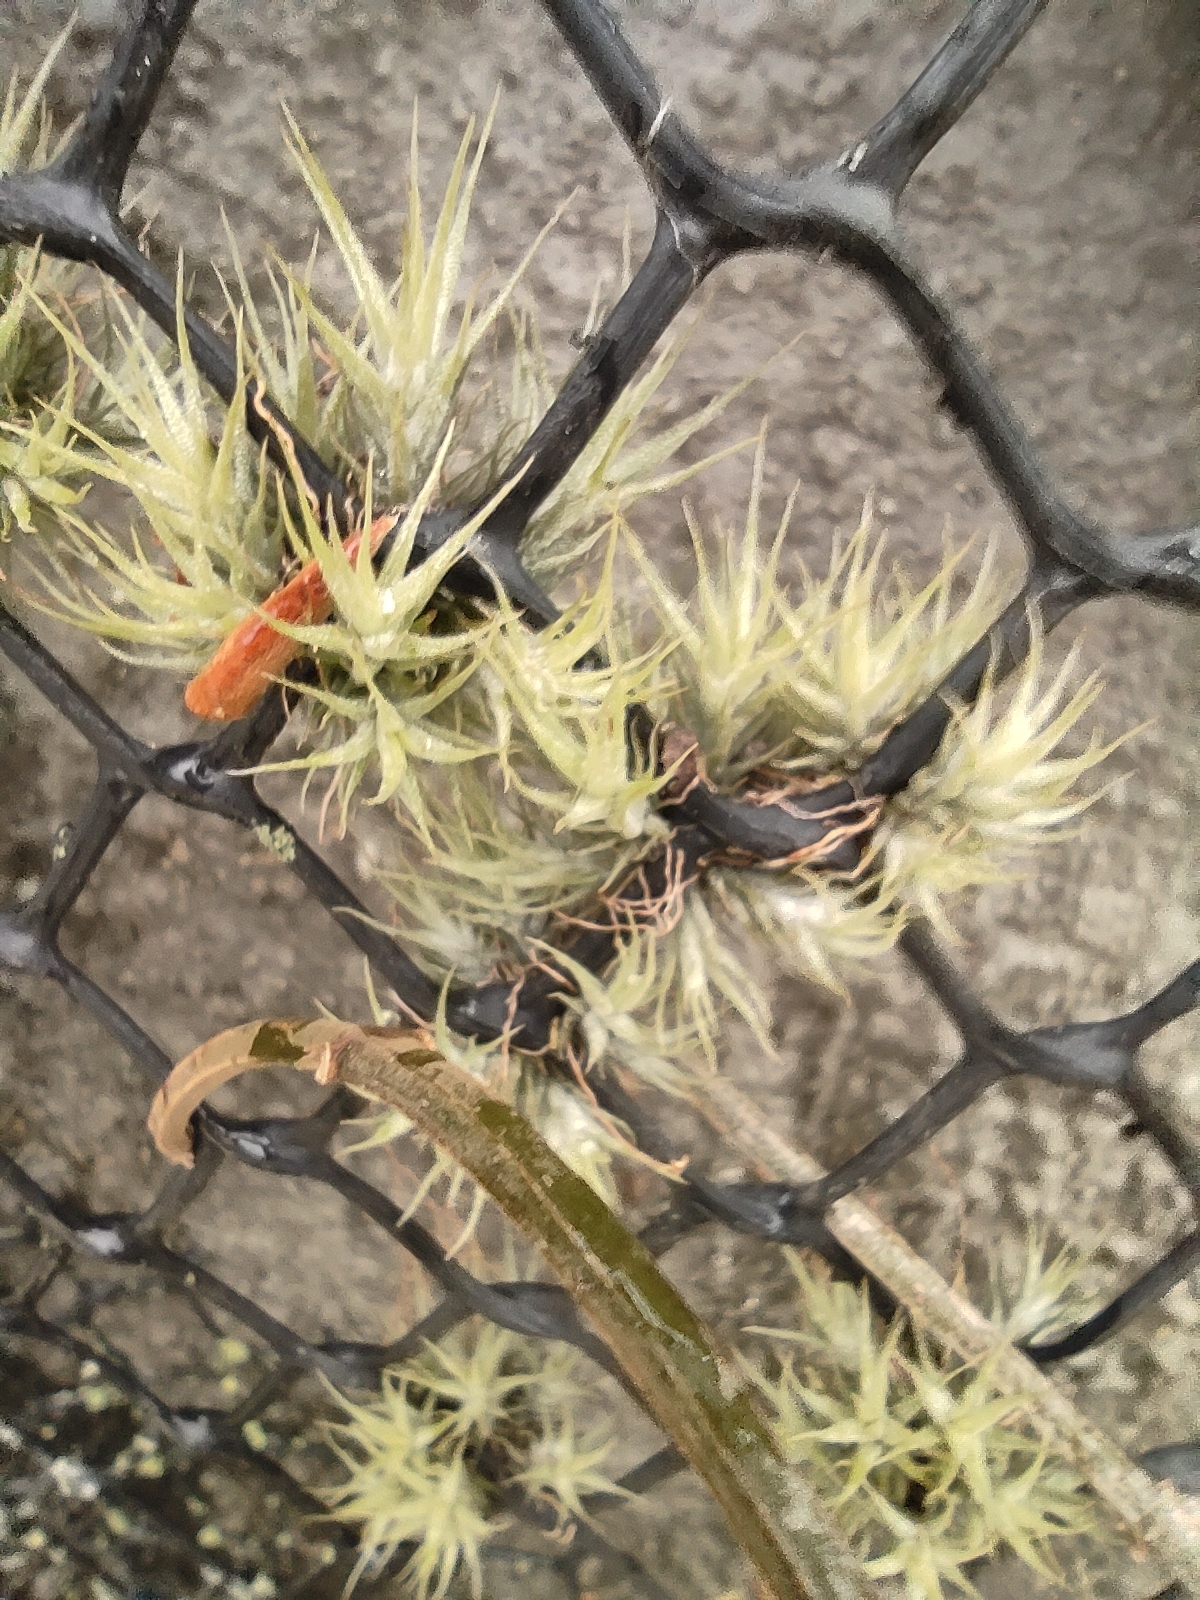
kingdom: Plantae
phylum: Tracheophyta
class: Liliopsida
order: Poales
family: Bromeliaceae
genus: Tillandsia
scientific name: Tillandsia tricholepis
